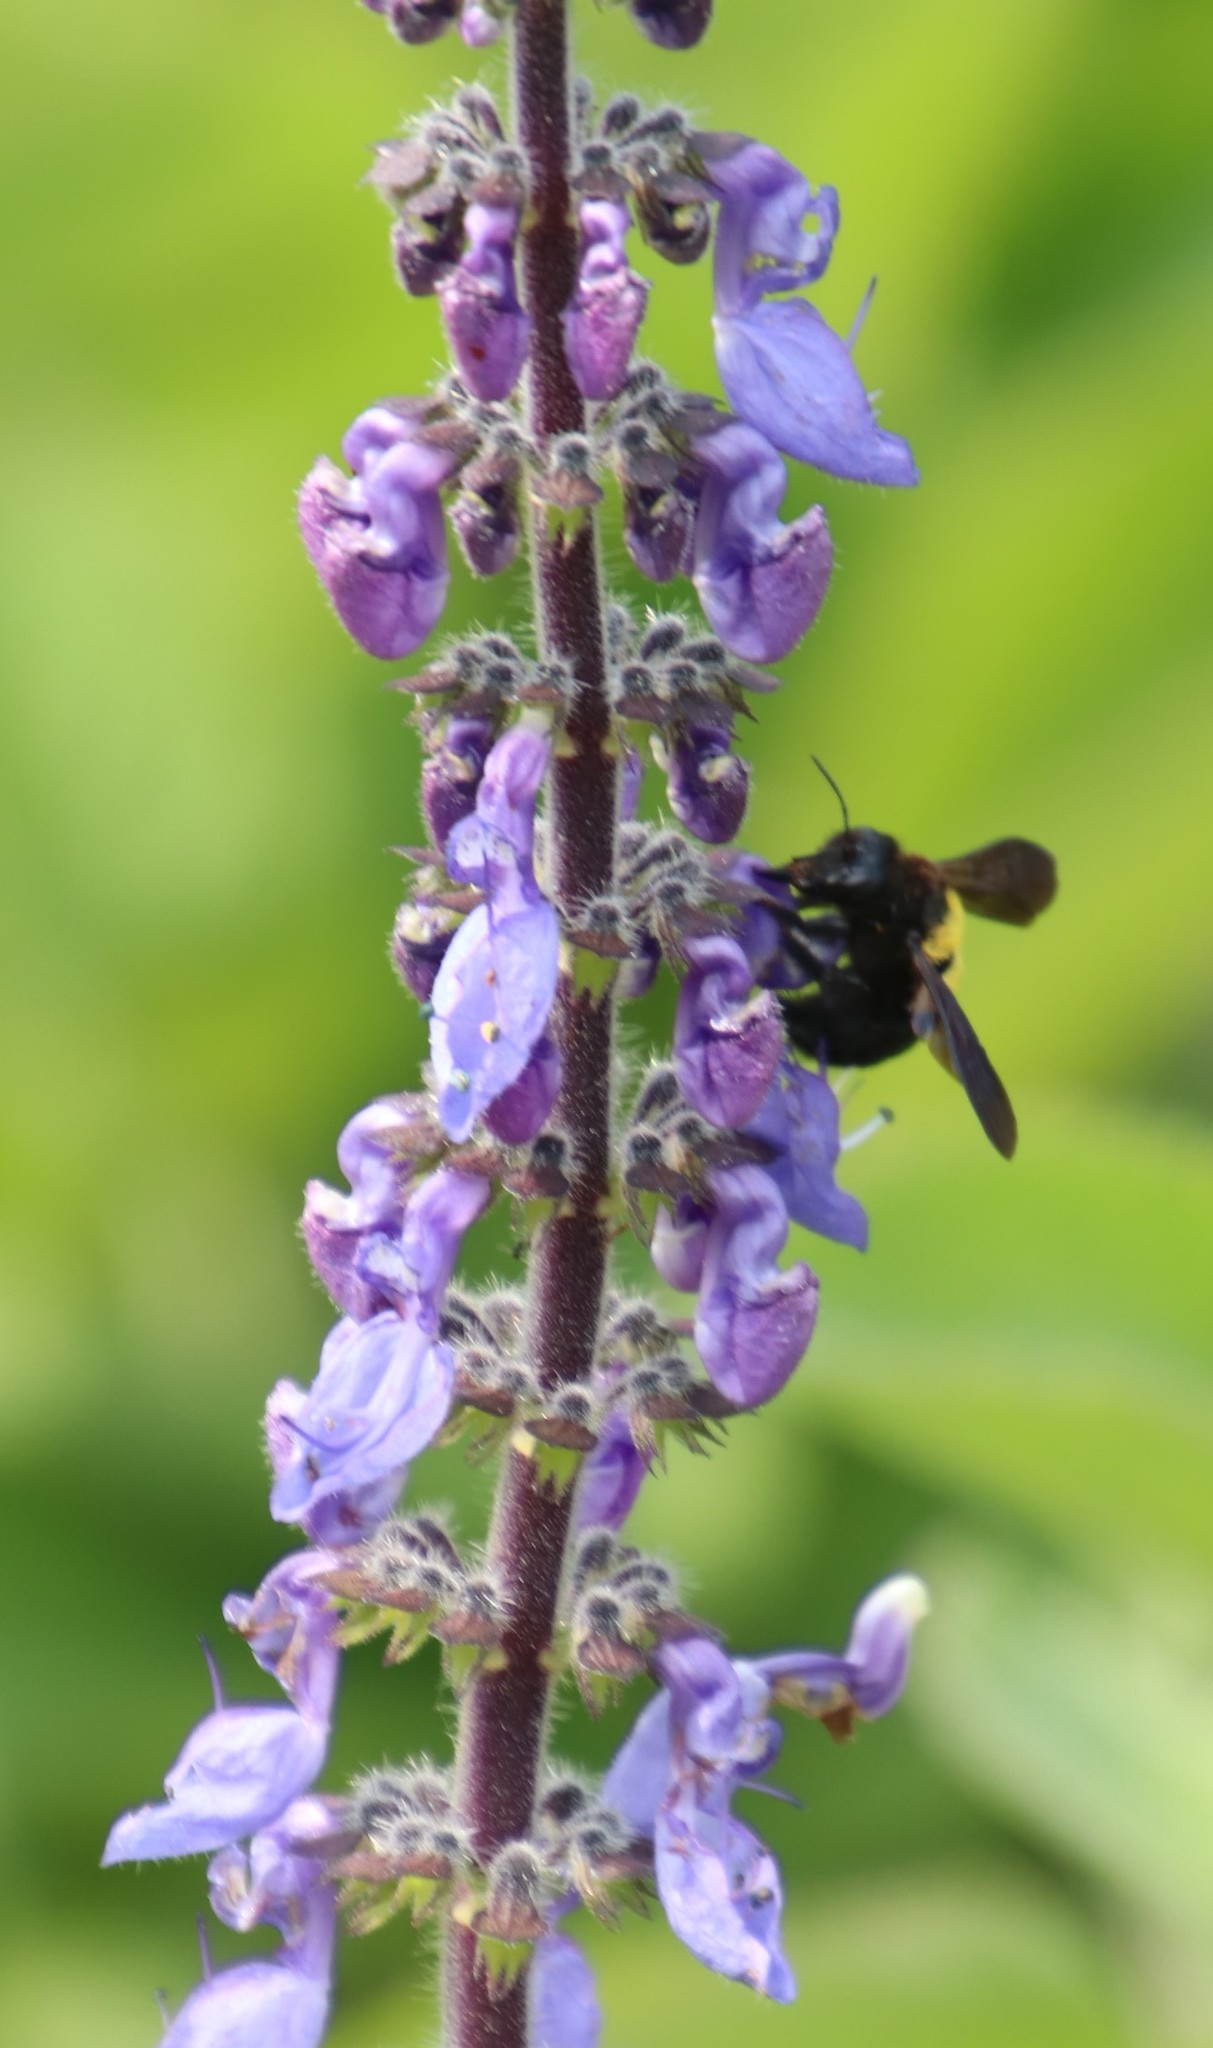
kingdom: Plantae
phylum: Tracheophyta
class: Magnoliopsida
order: Lamiales
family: Lamiaceae
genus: Coleus
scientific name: Coleus barbatus
